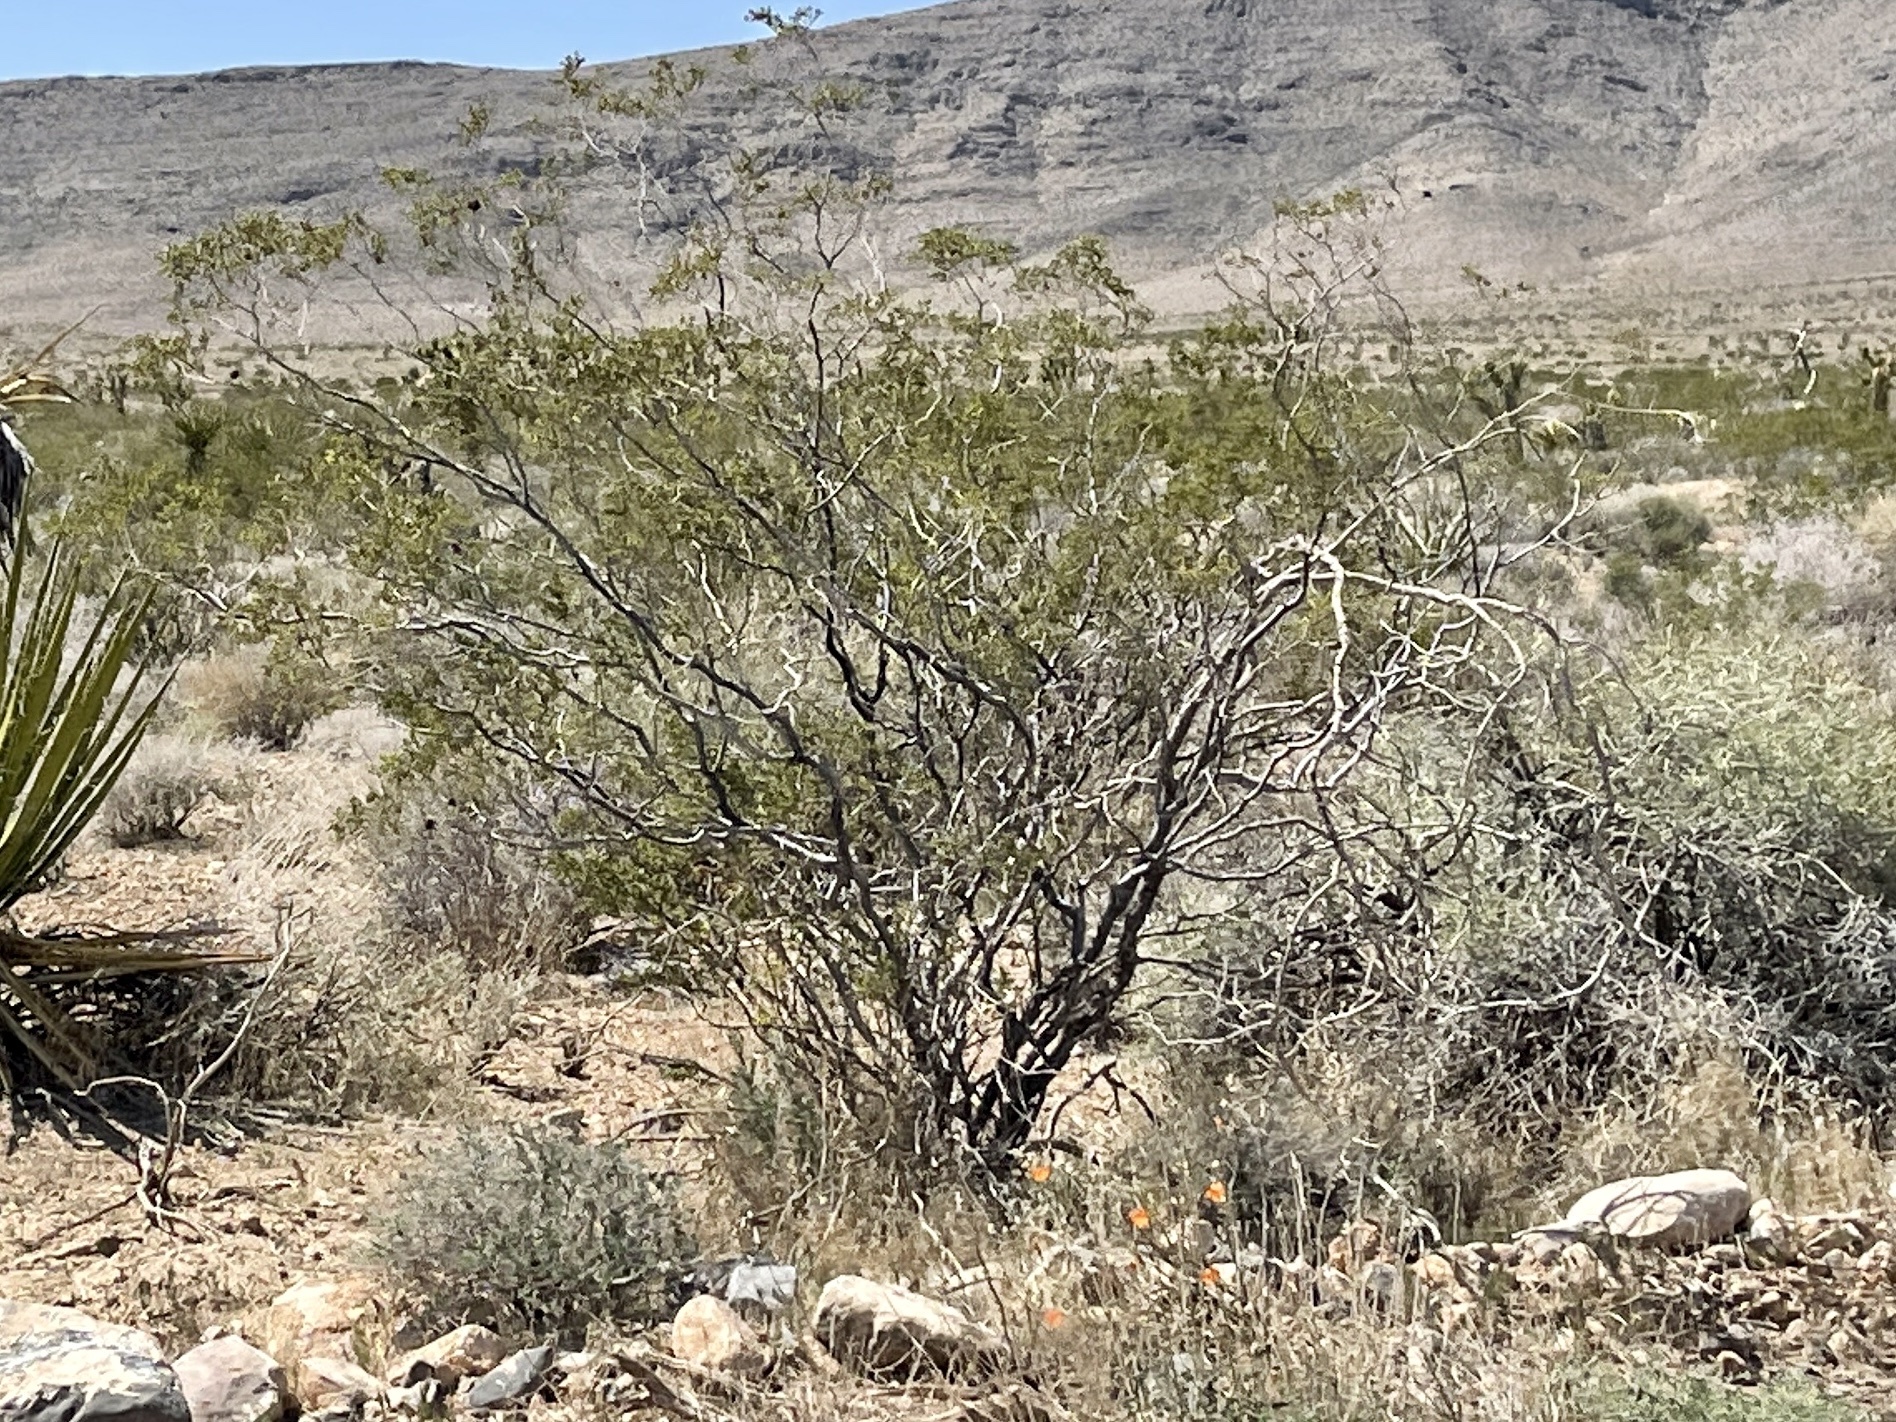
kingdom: Plantae
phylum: Tracheophyta
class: Magnoliopsida
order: Zygophyllales
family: Zygophyllaceae
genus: Larrea
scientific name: Larrea tridentata
